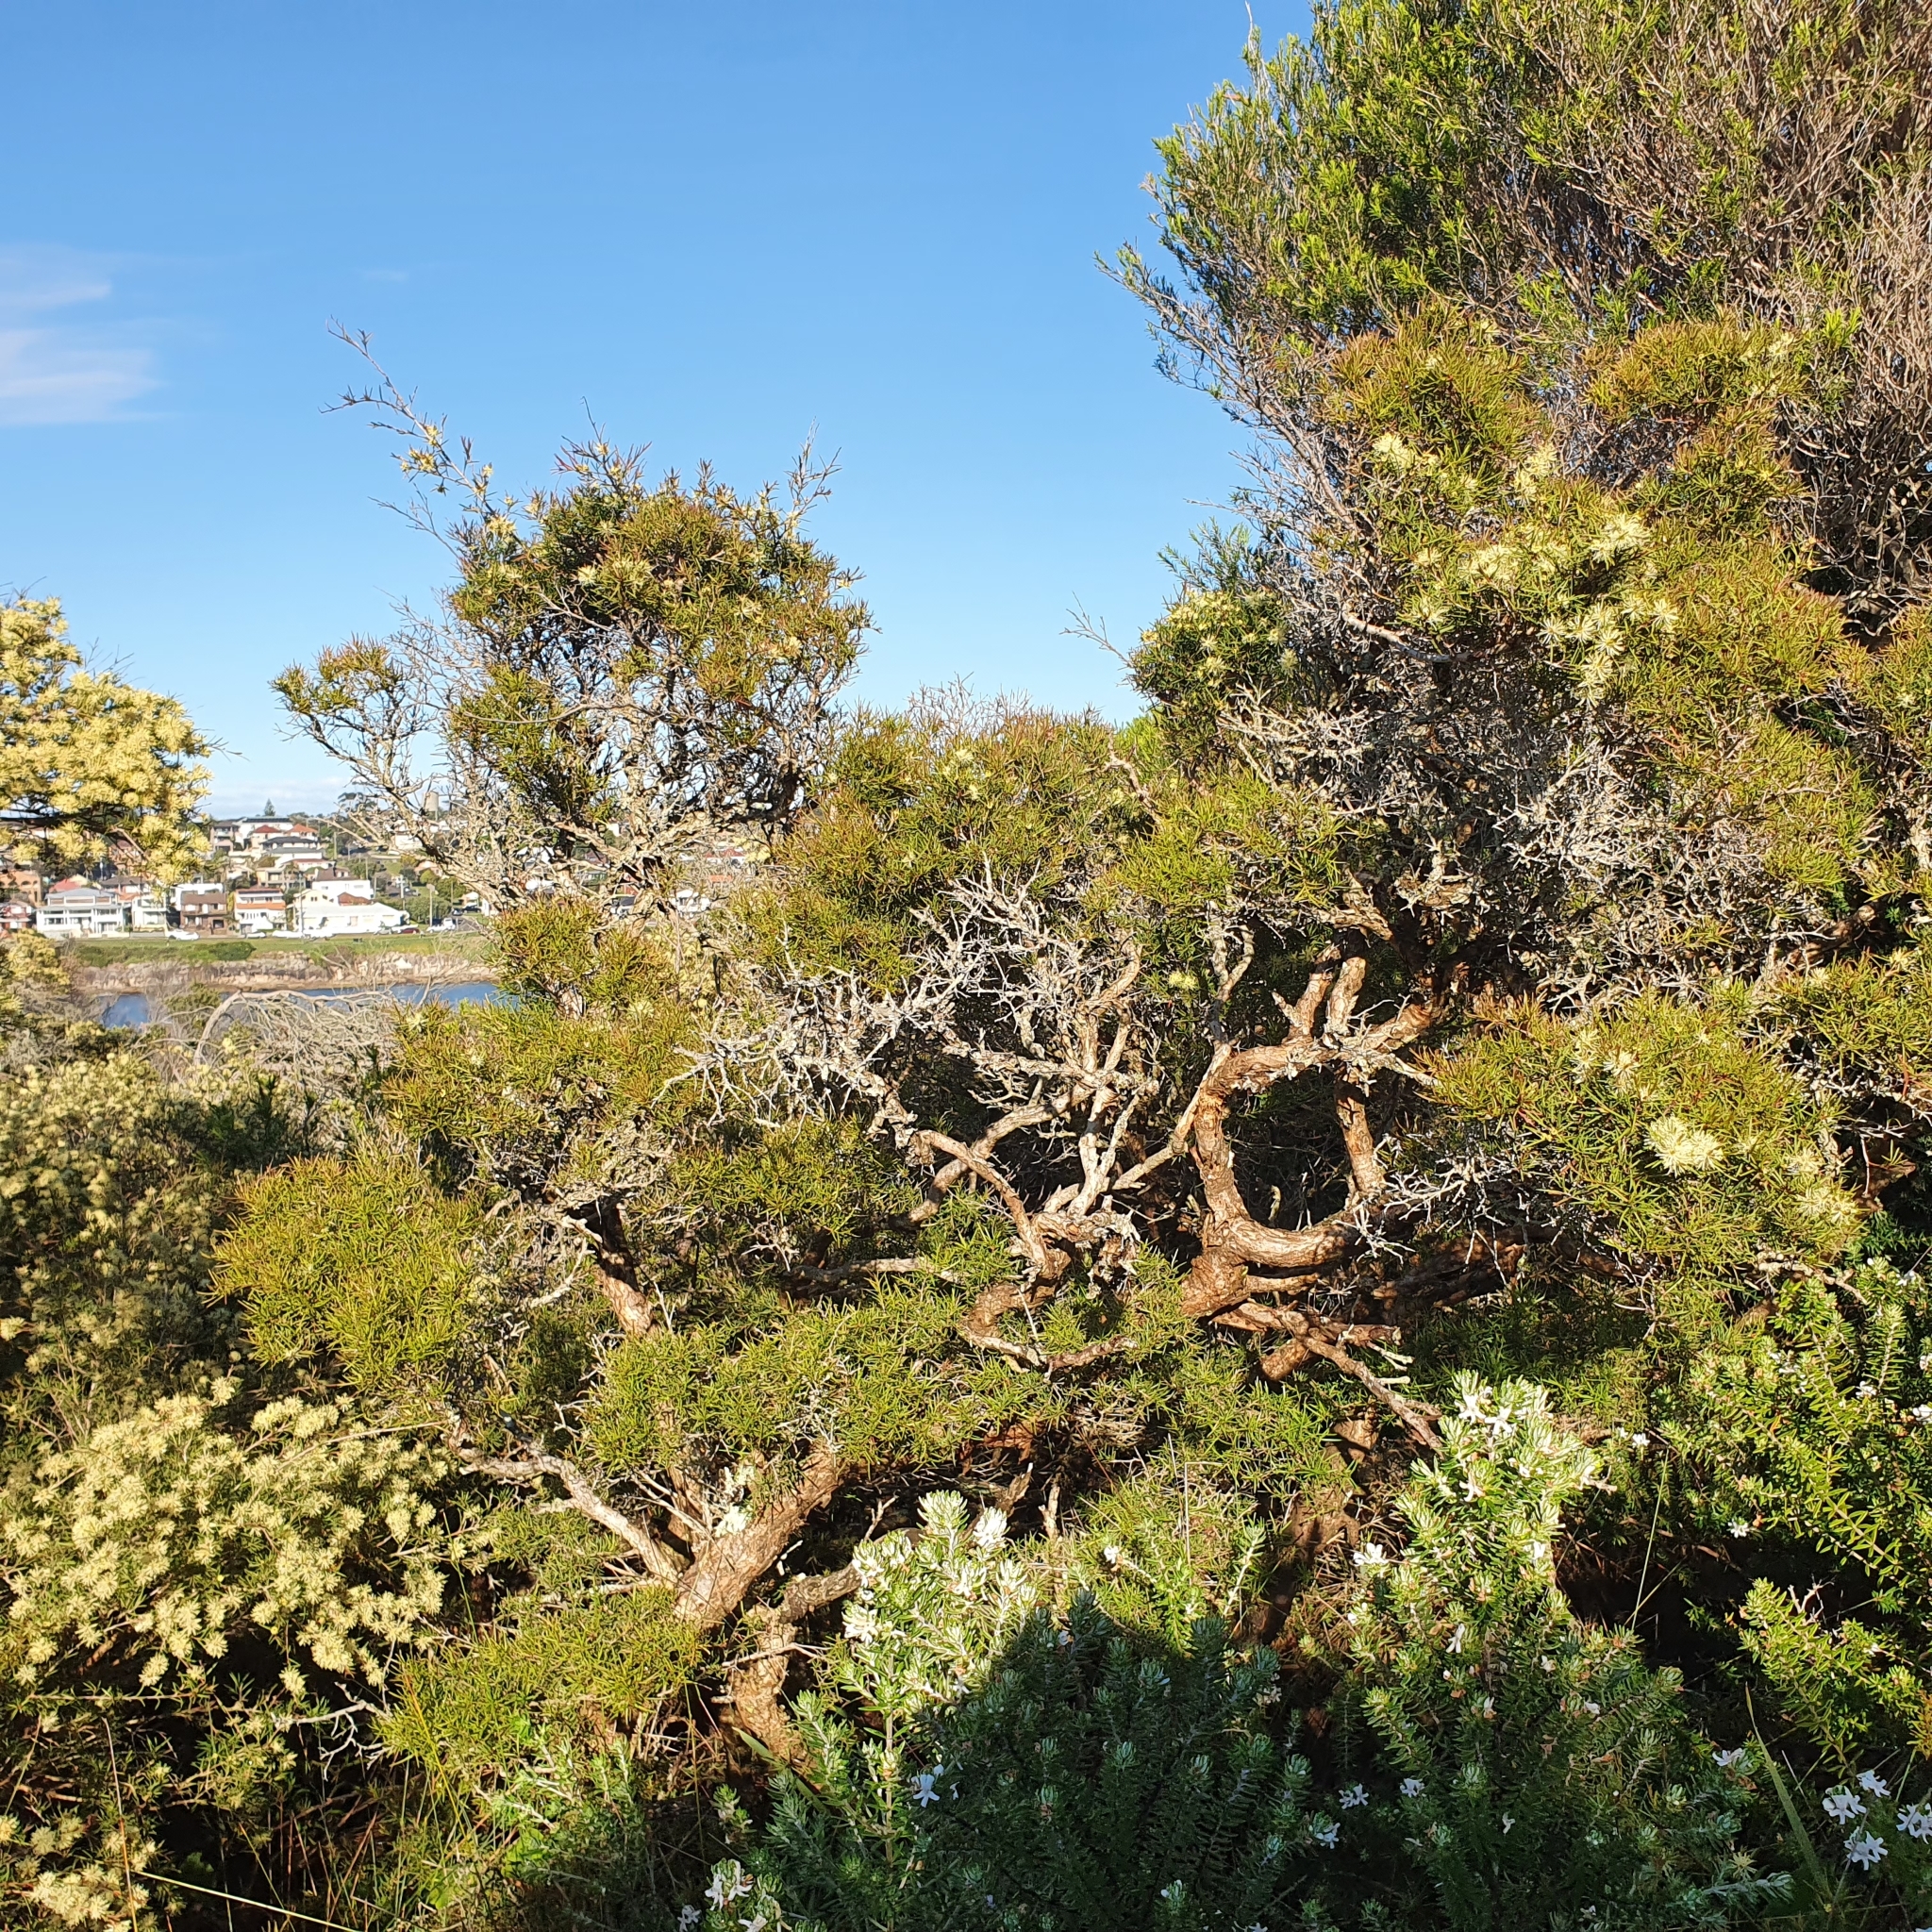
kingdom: Plantae
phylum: Tracheophyta
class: Magnoliopsida
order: Myrtales
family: Myrtaceae
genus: Melaleuca
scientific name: Melaleuca nodosa
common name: Prickly-leaf paperbark
